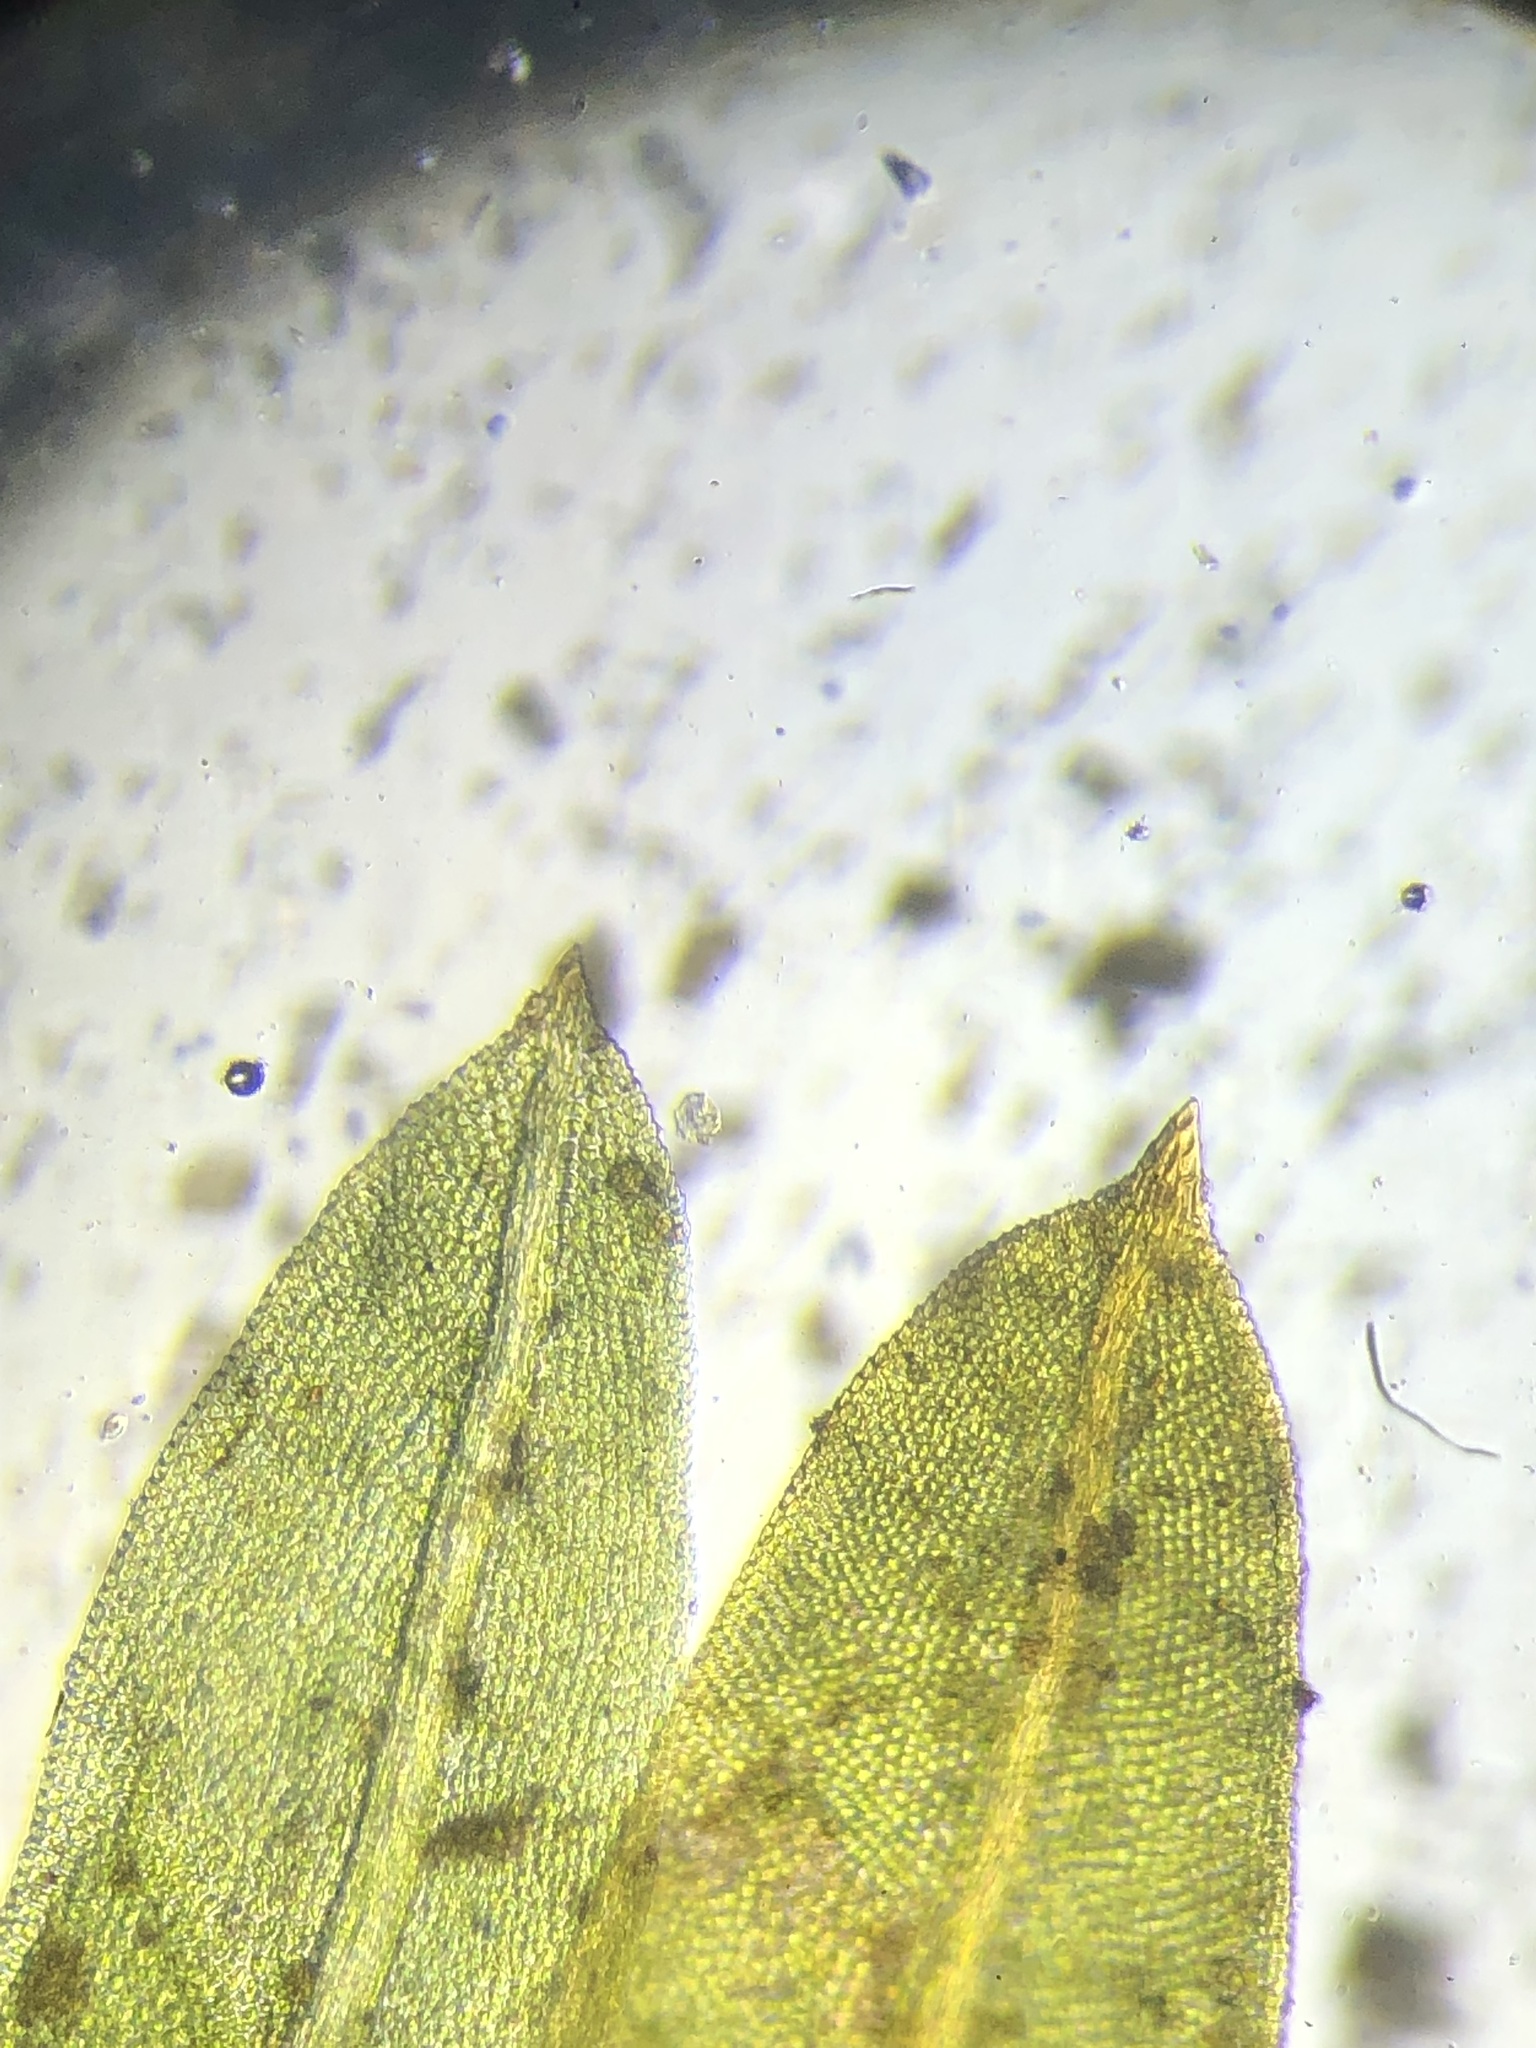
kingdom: Plantae
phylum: Bryophyta
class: Bryopsida
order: Dicranales
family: Fissidentaceae
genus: Fissidens
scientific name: Fissidens taxifolius
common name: Yew-leaved pocket moss
